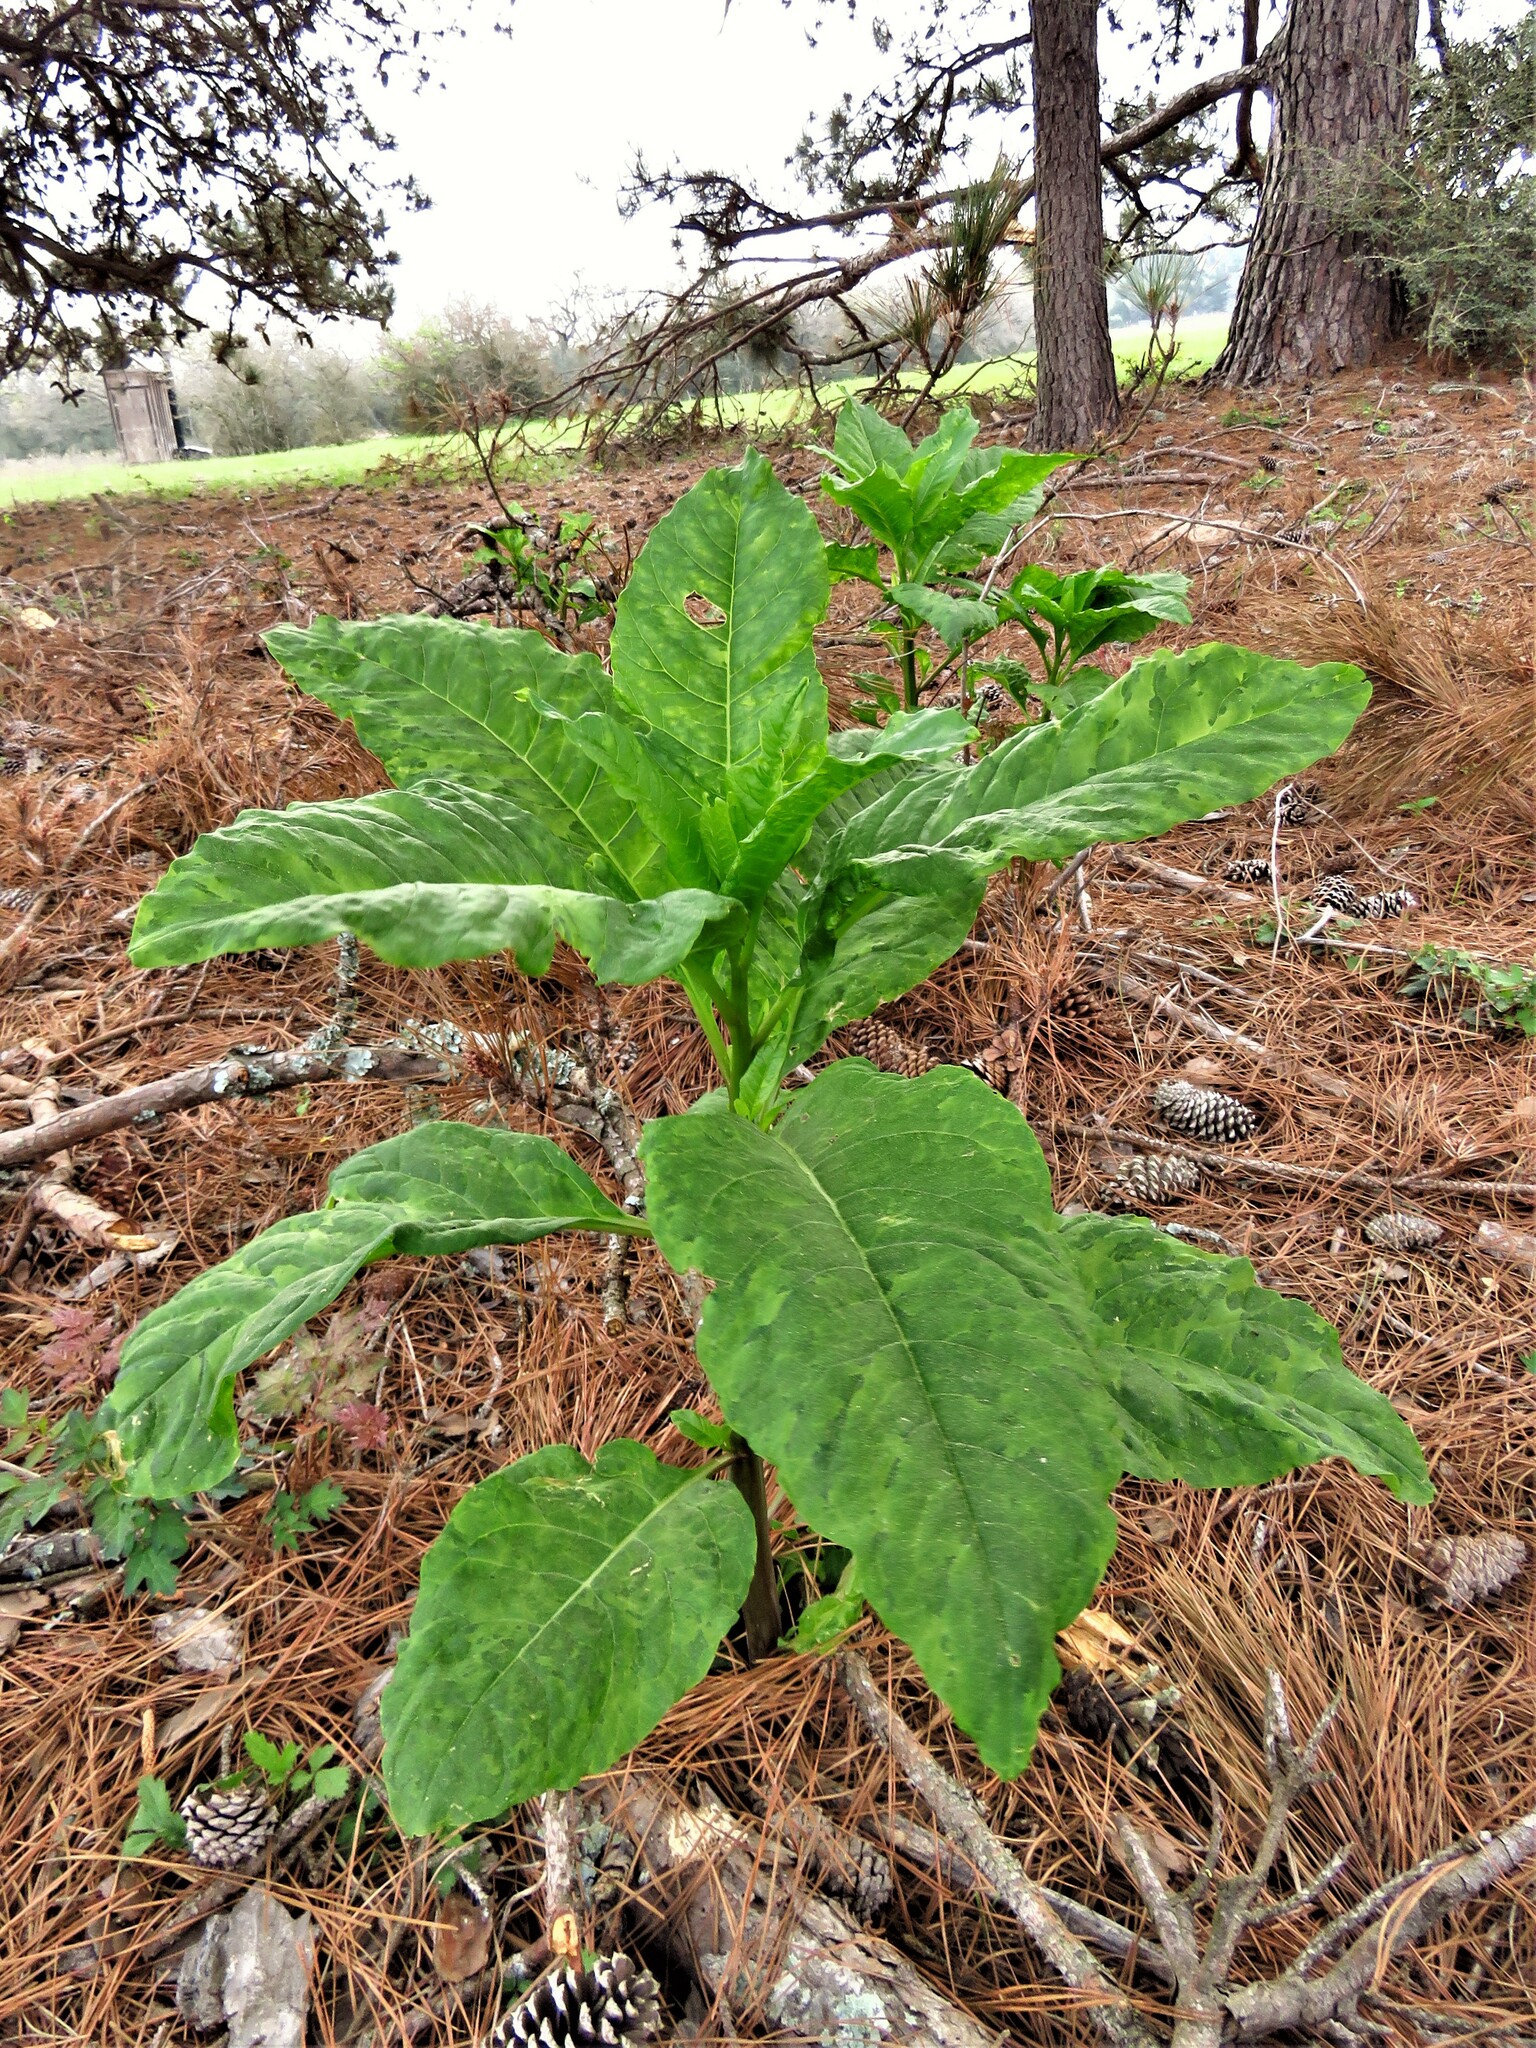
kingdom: Plantae
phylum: Tracheophyta
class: Magnoliopsida
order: Caryophyllales
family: Phytolaccaceae
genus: Phytolacca
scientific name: Phytolacca americana
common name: American pokeweed
